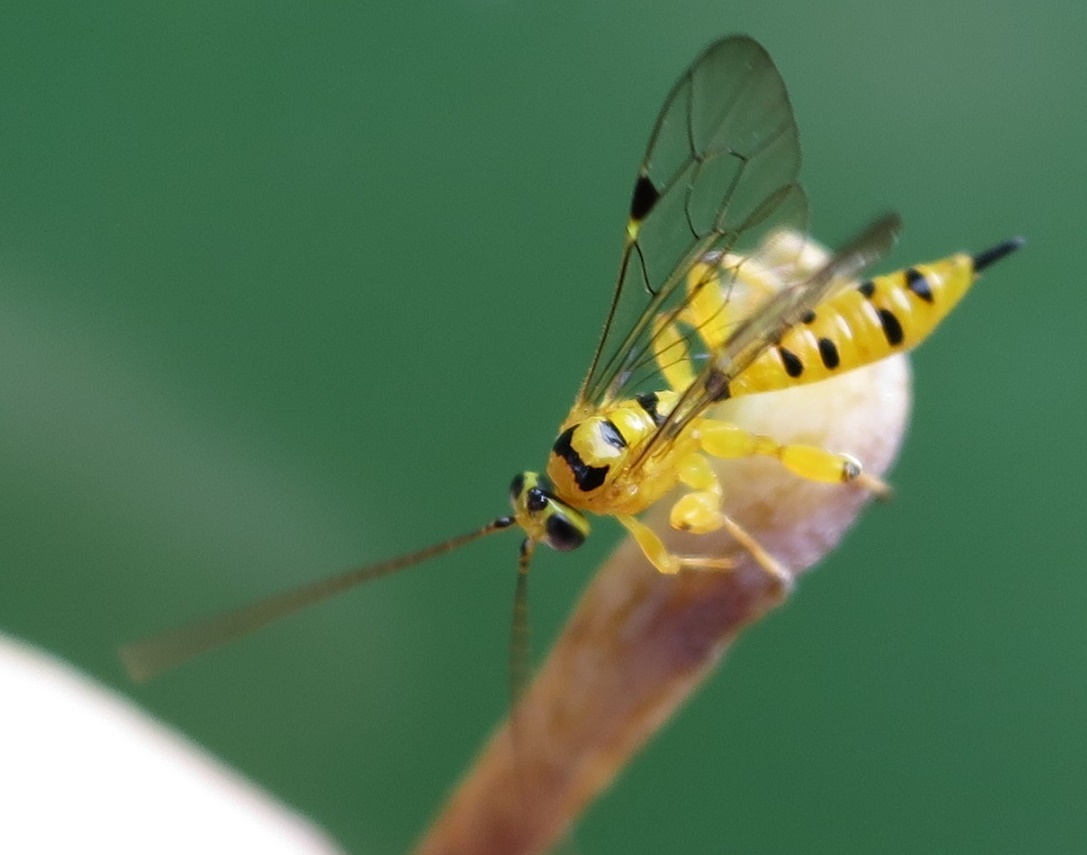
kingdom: Animalia
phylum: Arthropoda
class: Insecta
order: Hymenoptera
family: Ichneumonidae
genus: Xanthopimpla
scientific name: Xanthopimpla rhopaloceros
